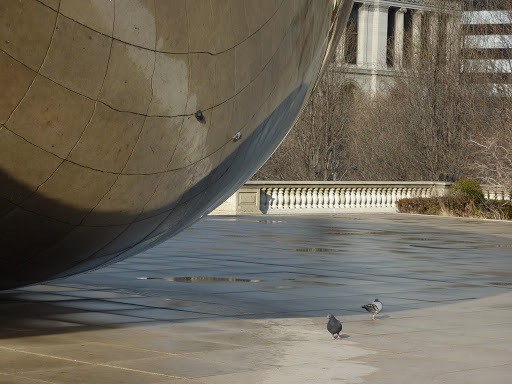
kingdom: Animalia
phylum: Chordata
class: Aves
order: Columbiformes
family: Columbidae
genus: Columba
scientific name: Columba livia
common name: Rock pigeon
